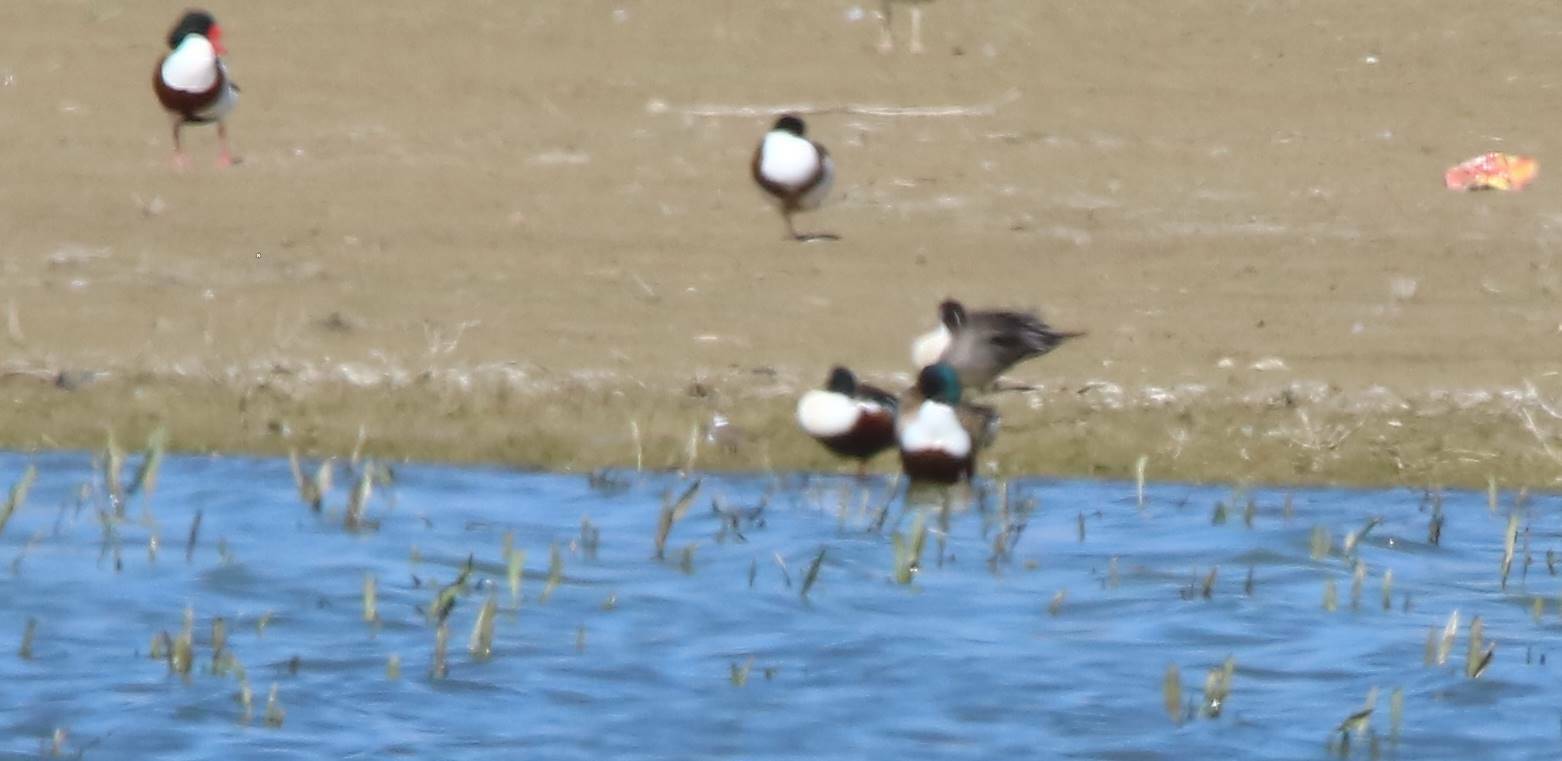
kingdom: Animalia
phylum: Chordata
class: Aves
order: Anseriformes
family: Anatidae
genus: Spatula
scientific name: Spatula clypeata
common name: Northern shoveler
